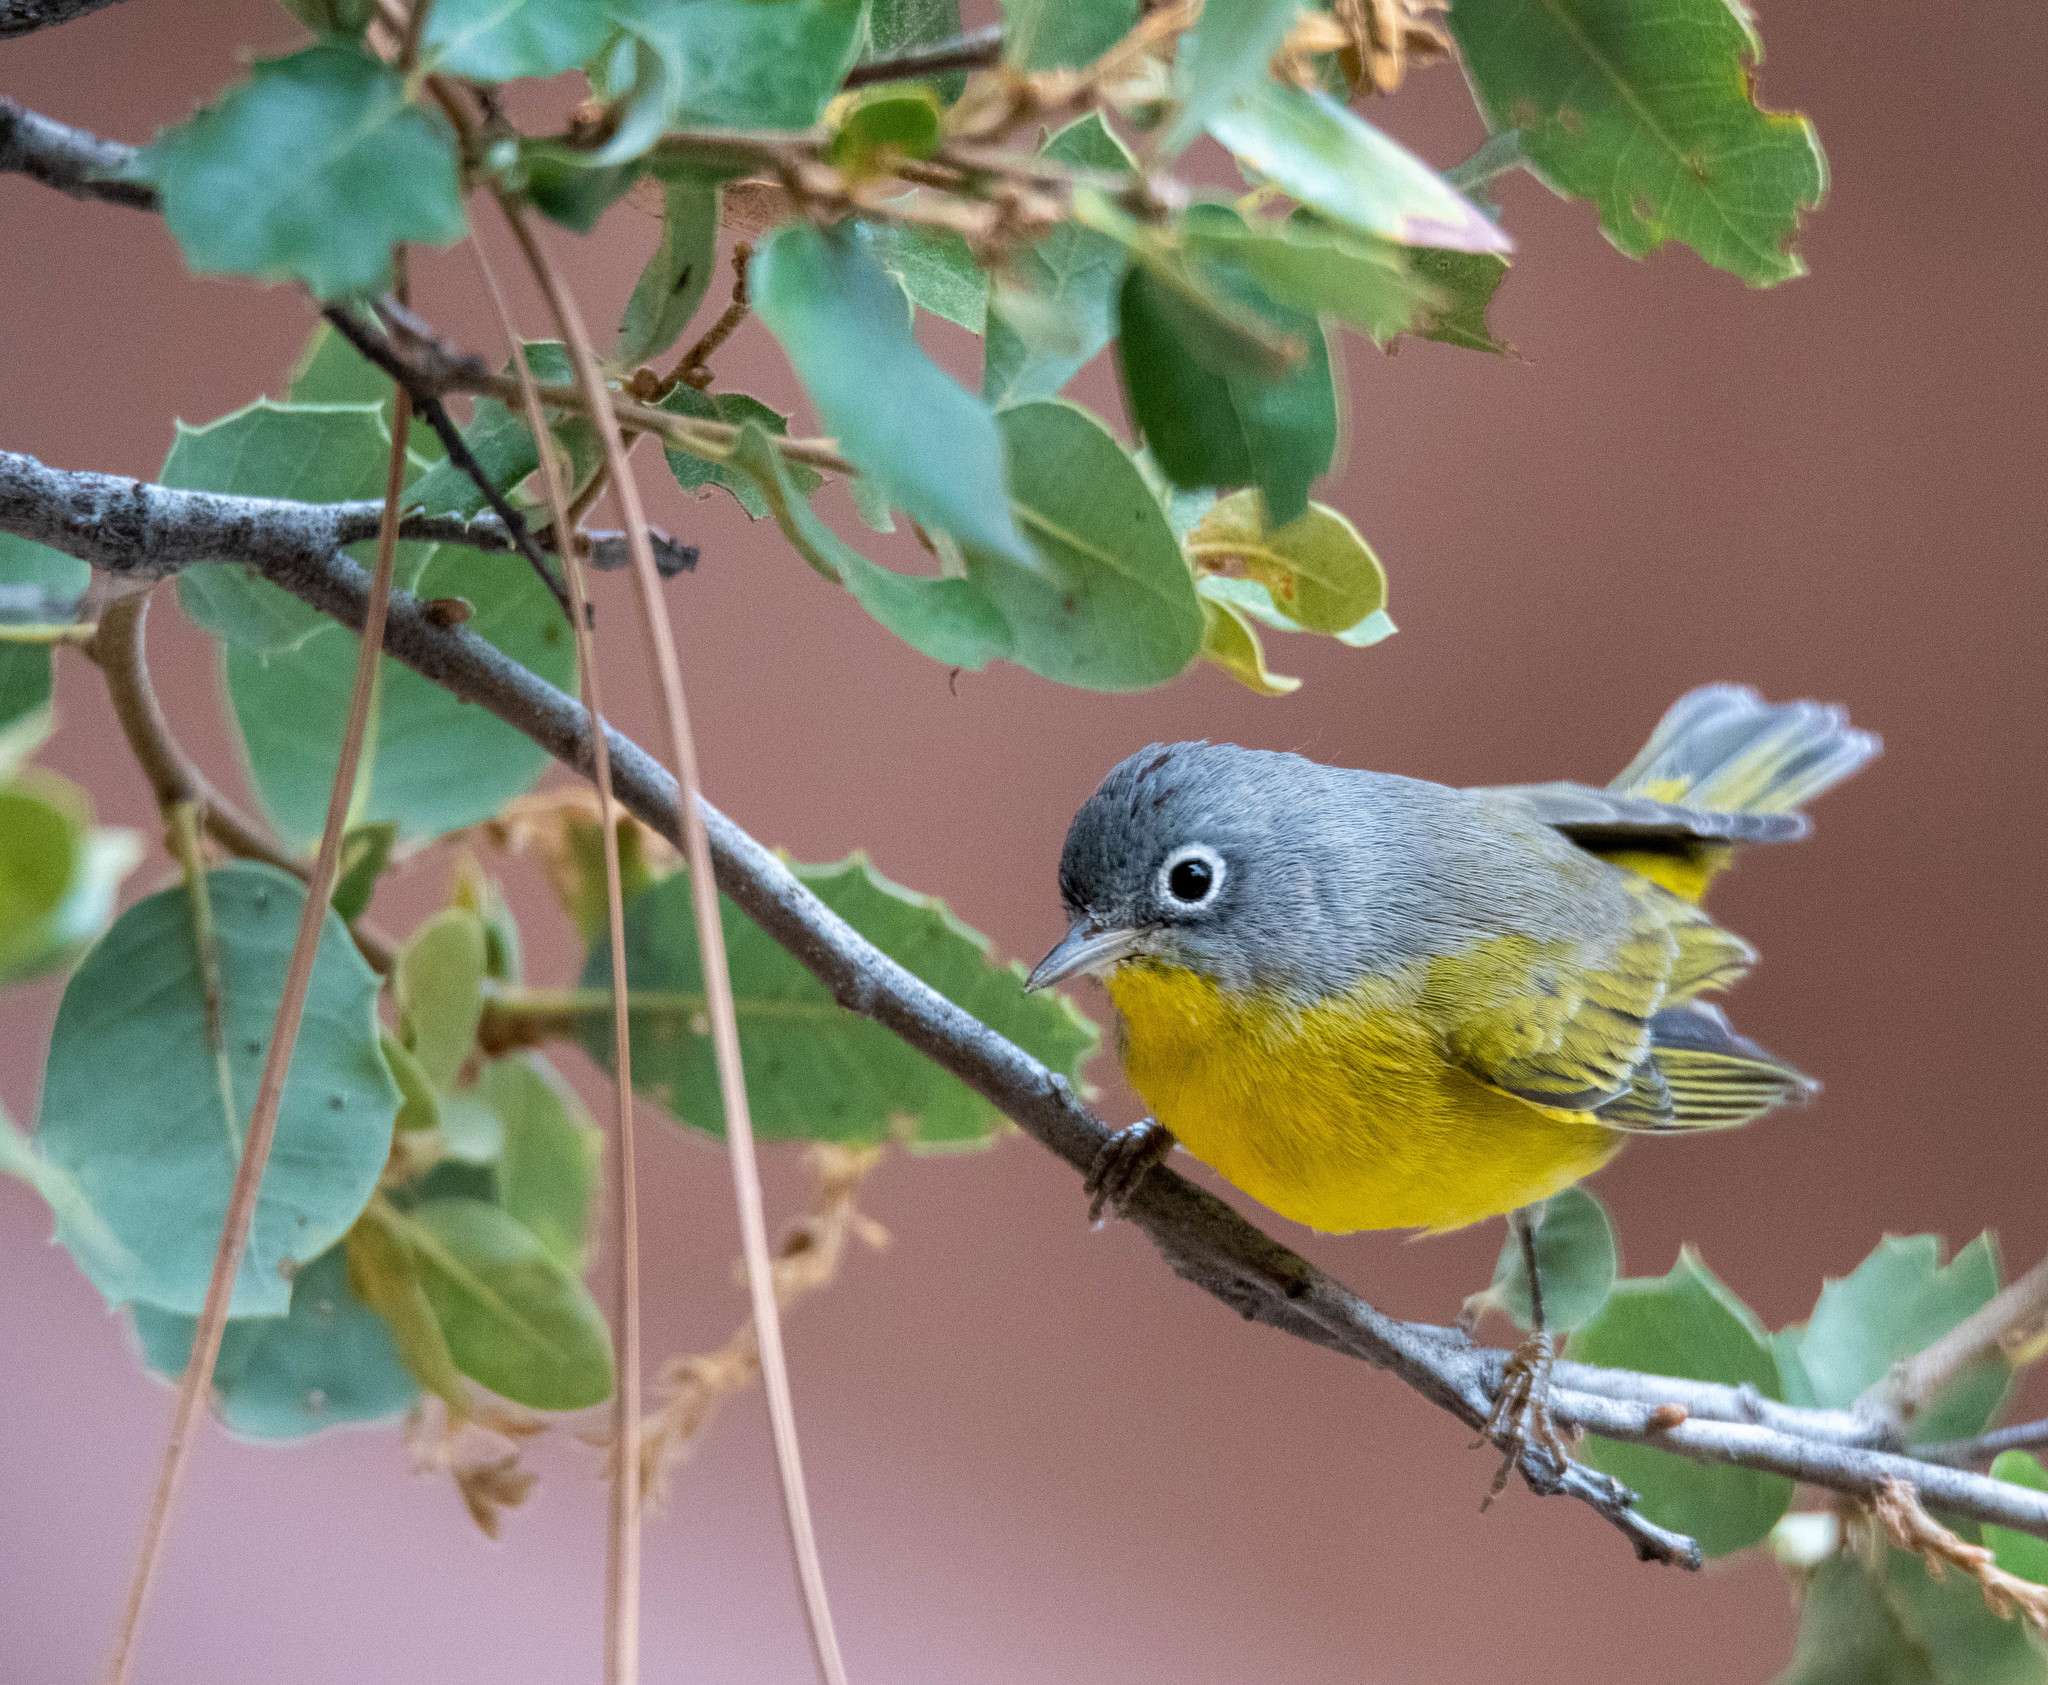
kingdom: Animalia
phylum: Chordata
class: Aves
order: Passeriformes
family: Parulidae
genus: Leiothlypis
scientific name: Leiothlypis ruficapilla
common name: Nashville warbler
